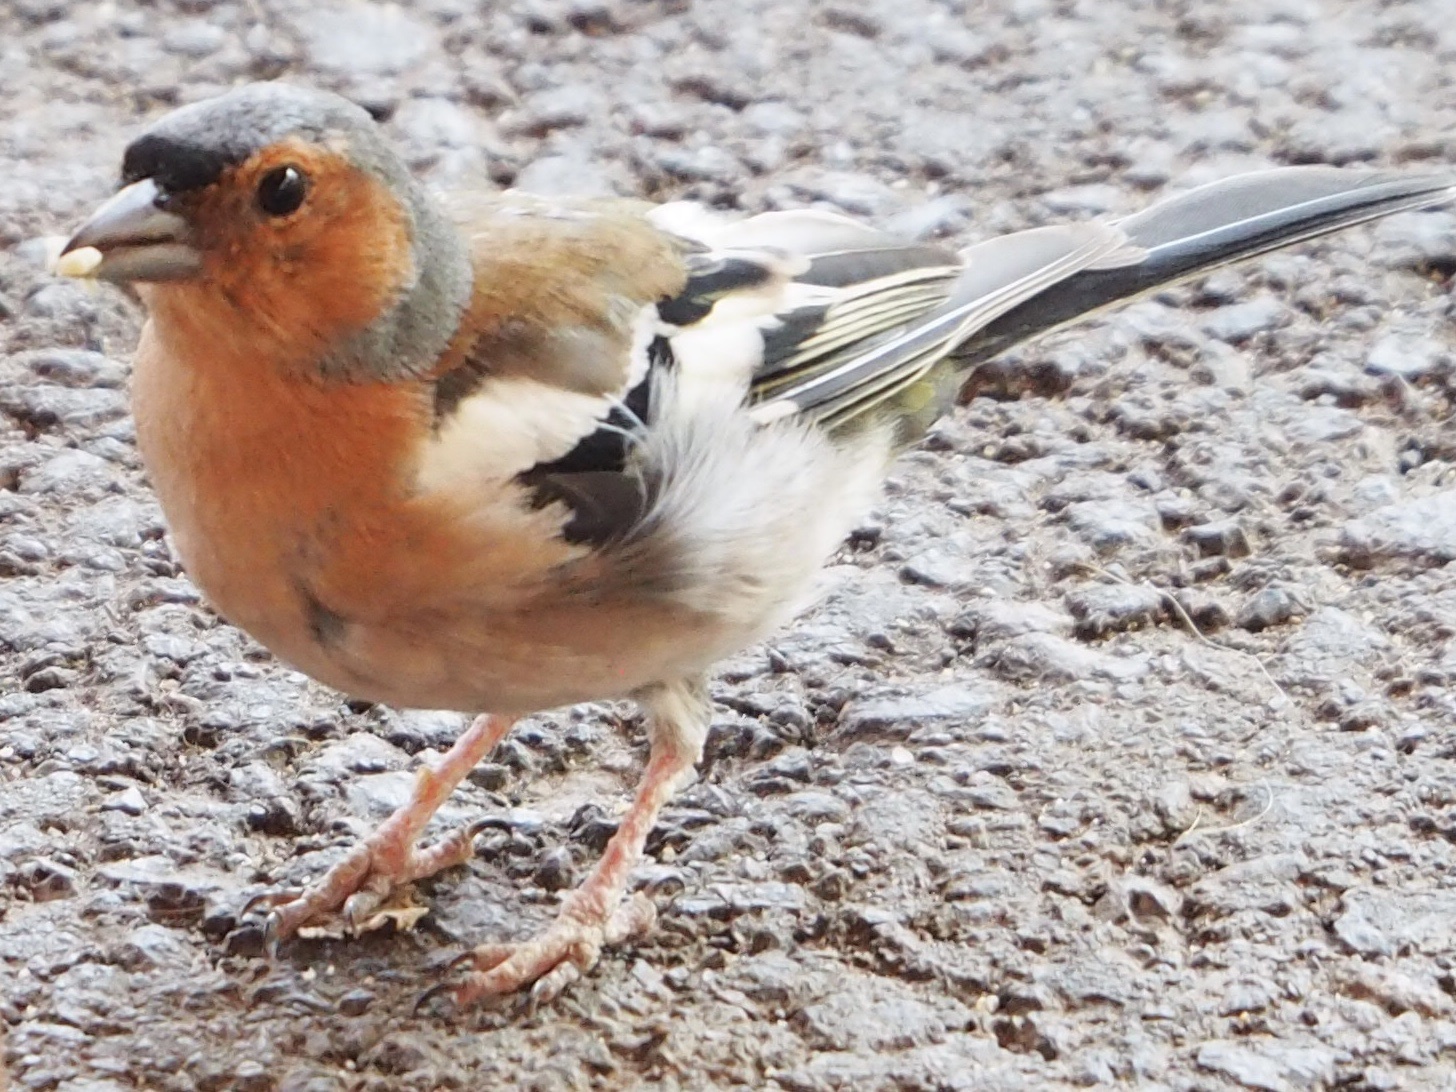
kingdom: Animalia
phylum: Chordata
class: Aves
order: Passeriformes
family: Fringillidae
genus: Fringilla
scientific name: Fringilla coelebs
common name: Common chaffinch
